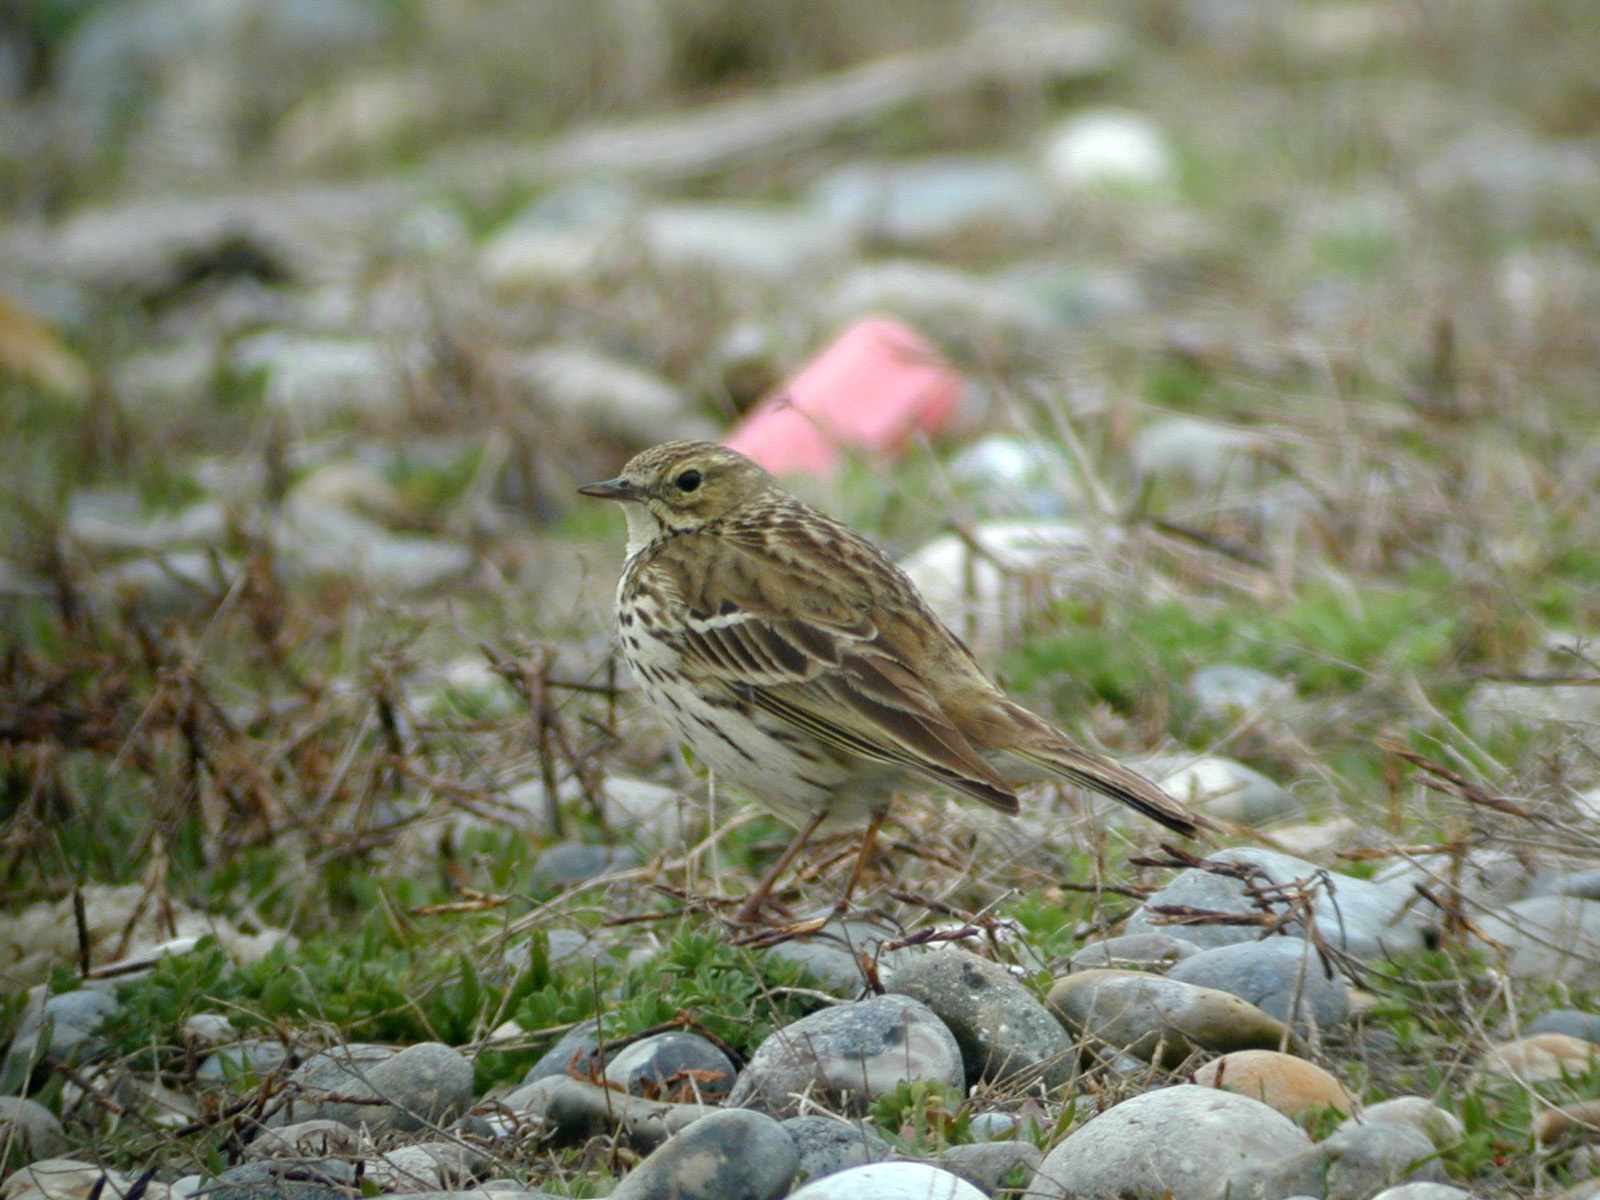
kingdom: Animalia
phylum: Chordata
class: Aves
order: Passeriformes
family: Motacillidae
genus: Anthus
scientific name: Anthus pratensis
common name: Meadow pipit
